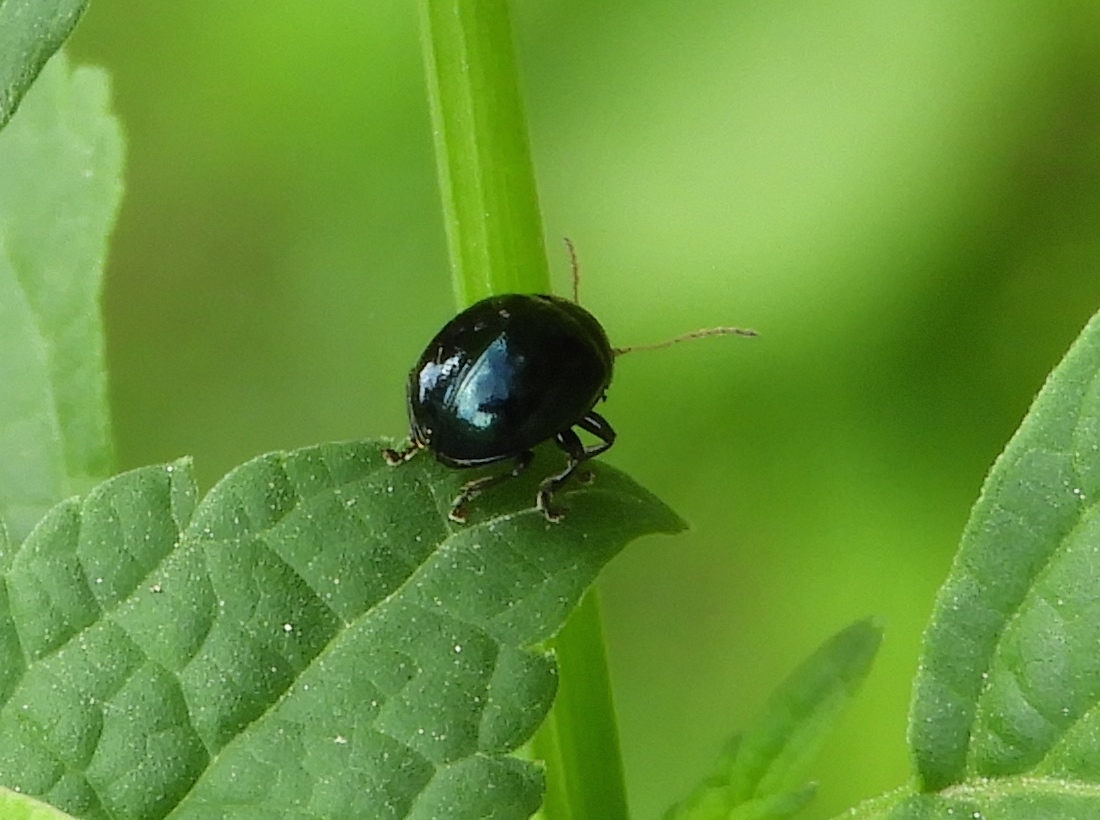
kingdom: Animalia
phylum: Arthropoda
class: Insecta
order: Coleoptera
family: Chrysomelidae
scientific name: Chrysomelidae
